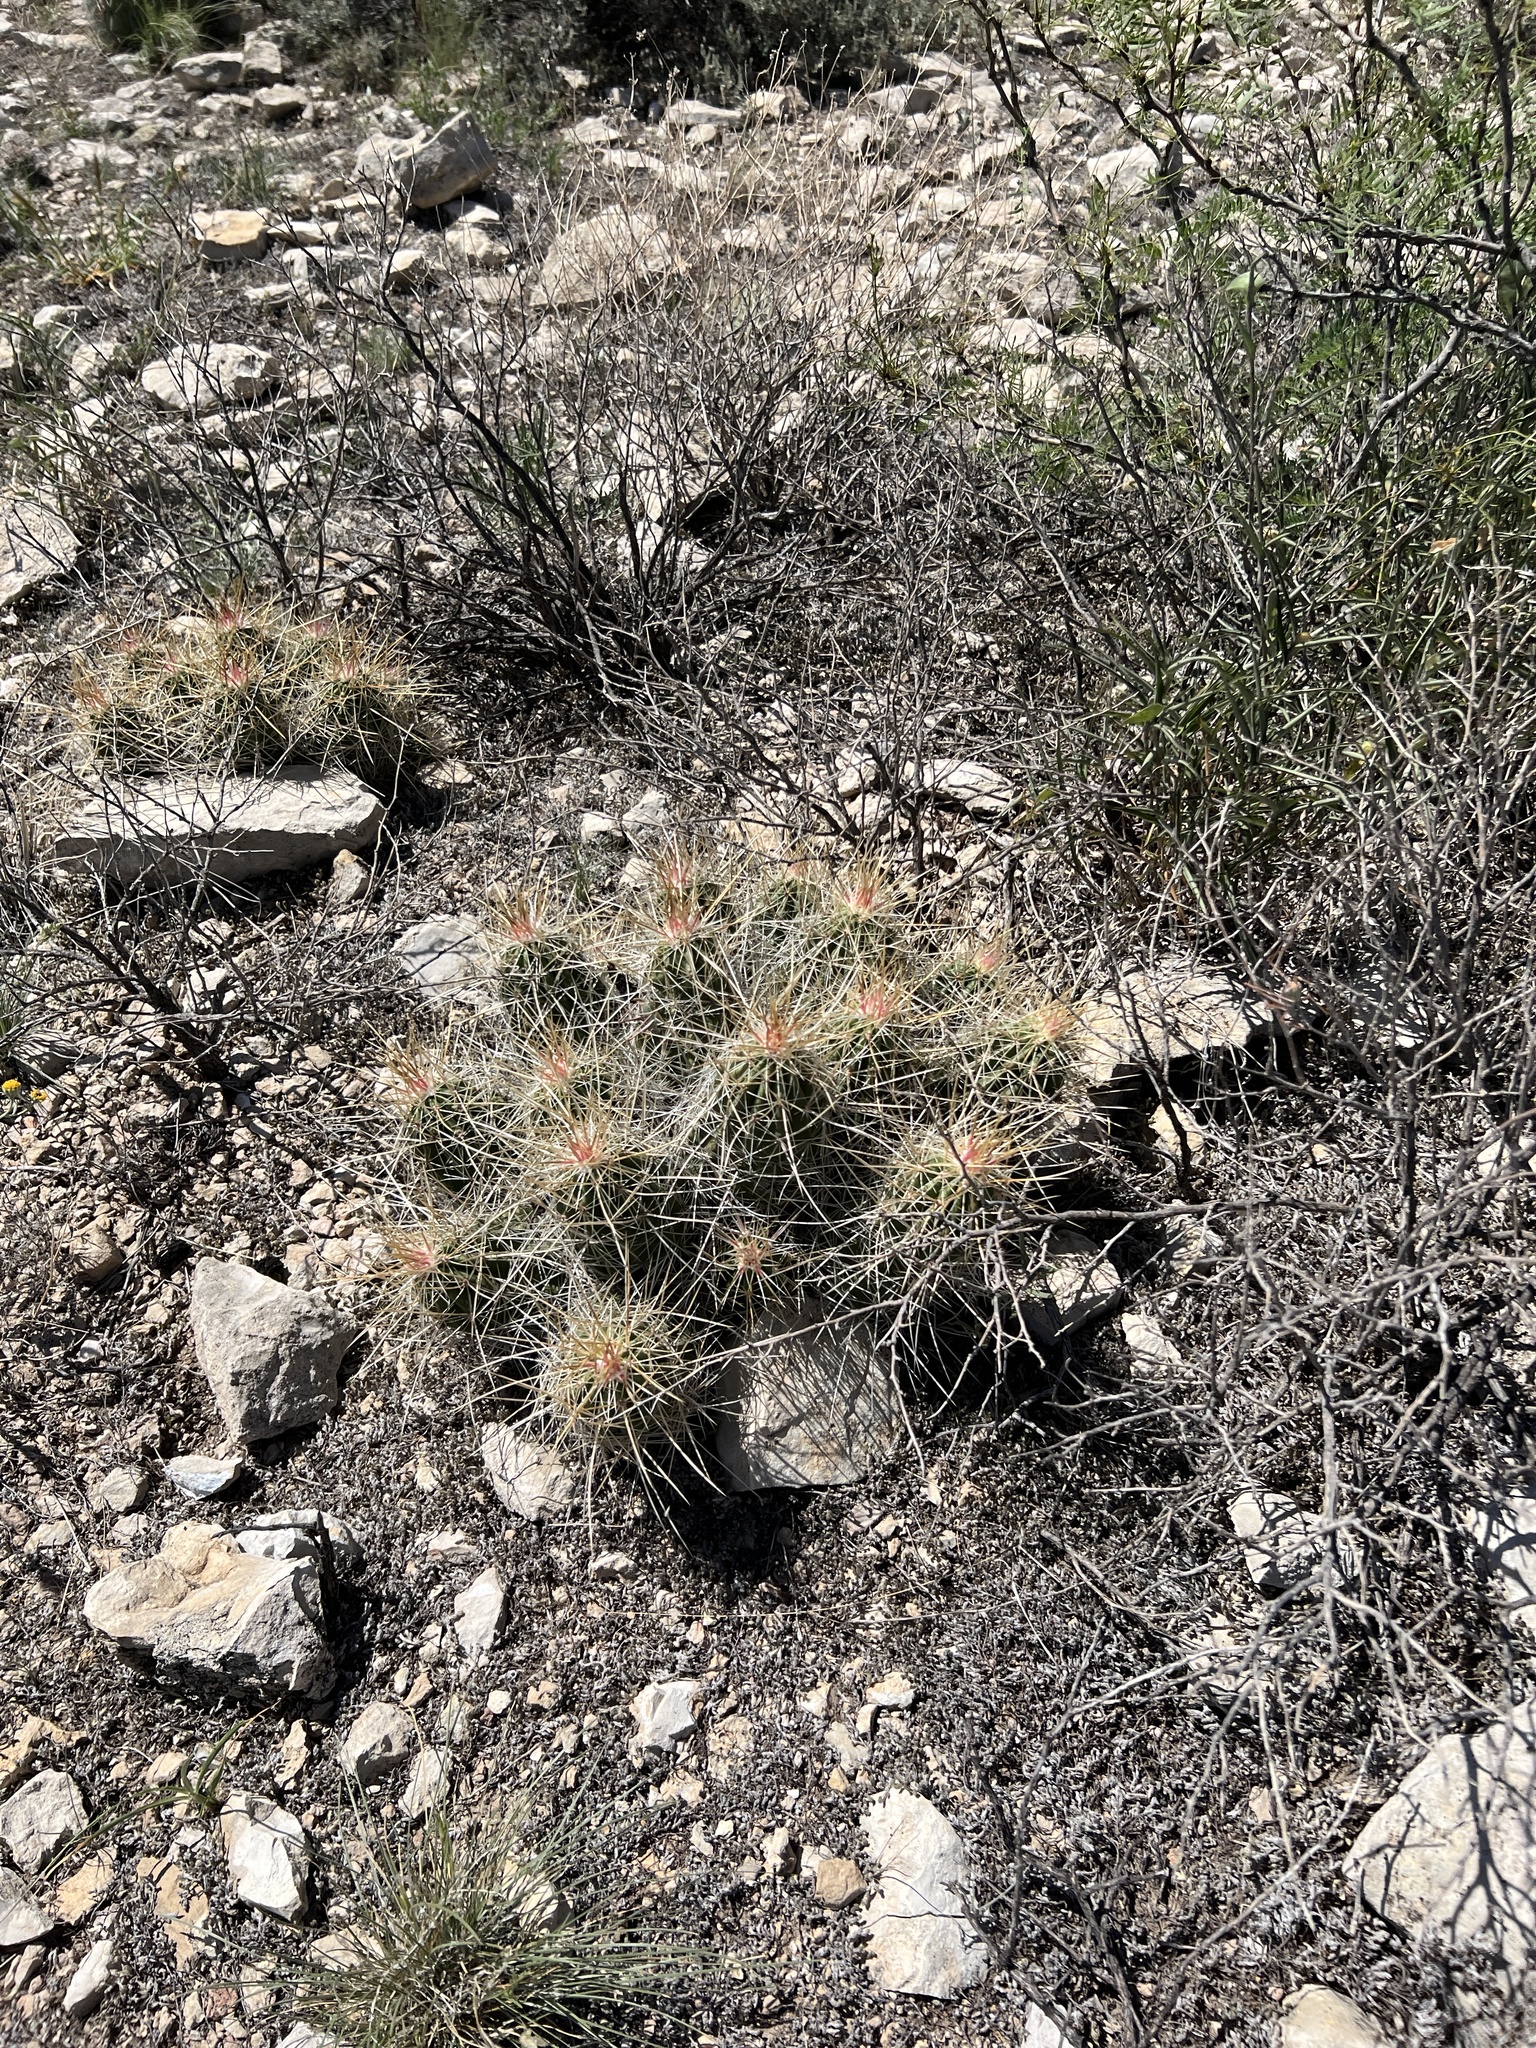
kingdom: Plantae
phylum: Tracheophyta
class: Magnoliopsida
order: Caryophyllales
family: Cactaceae
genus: Echinocereus
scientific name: Echinocereus stramineus
